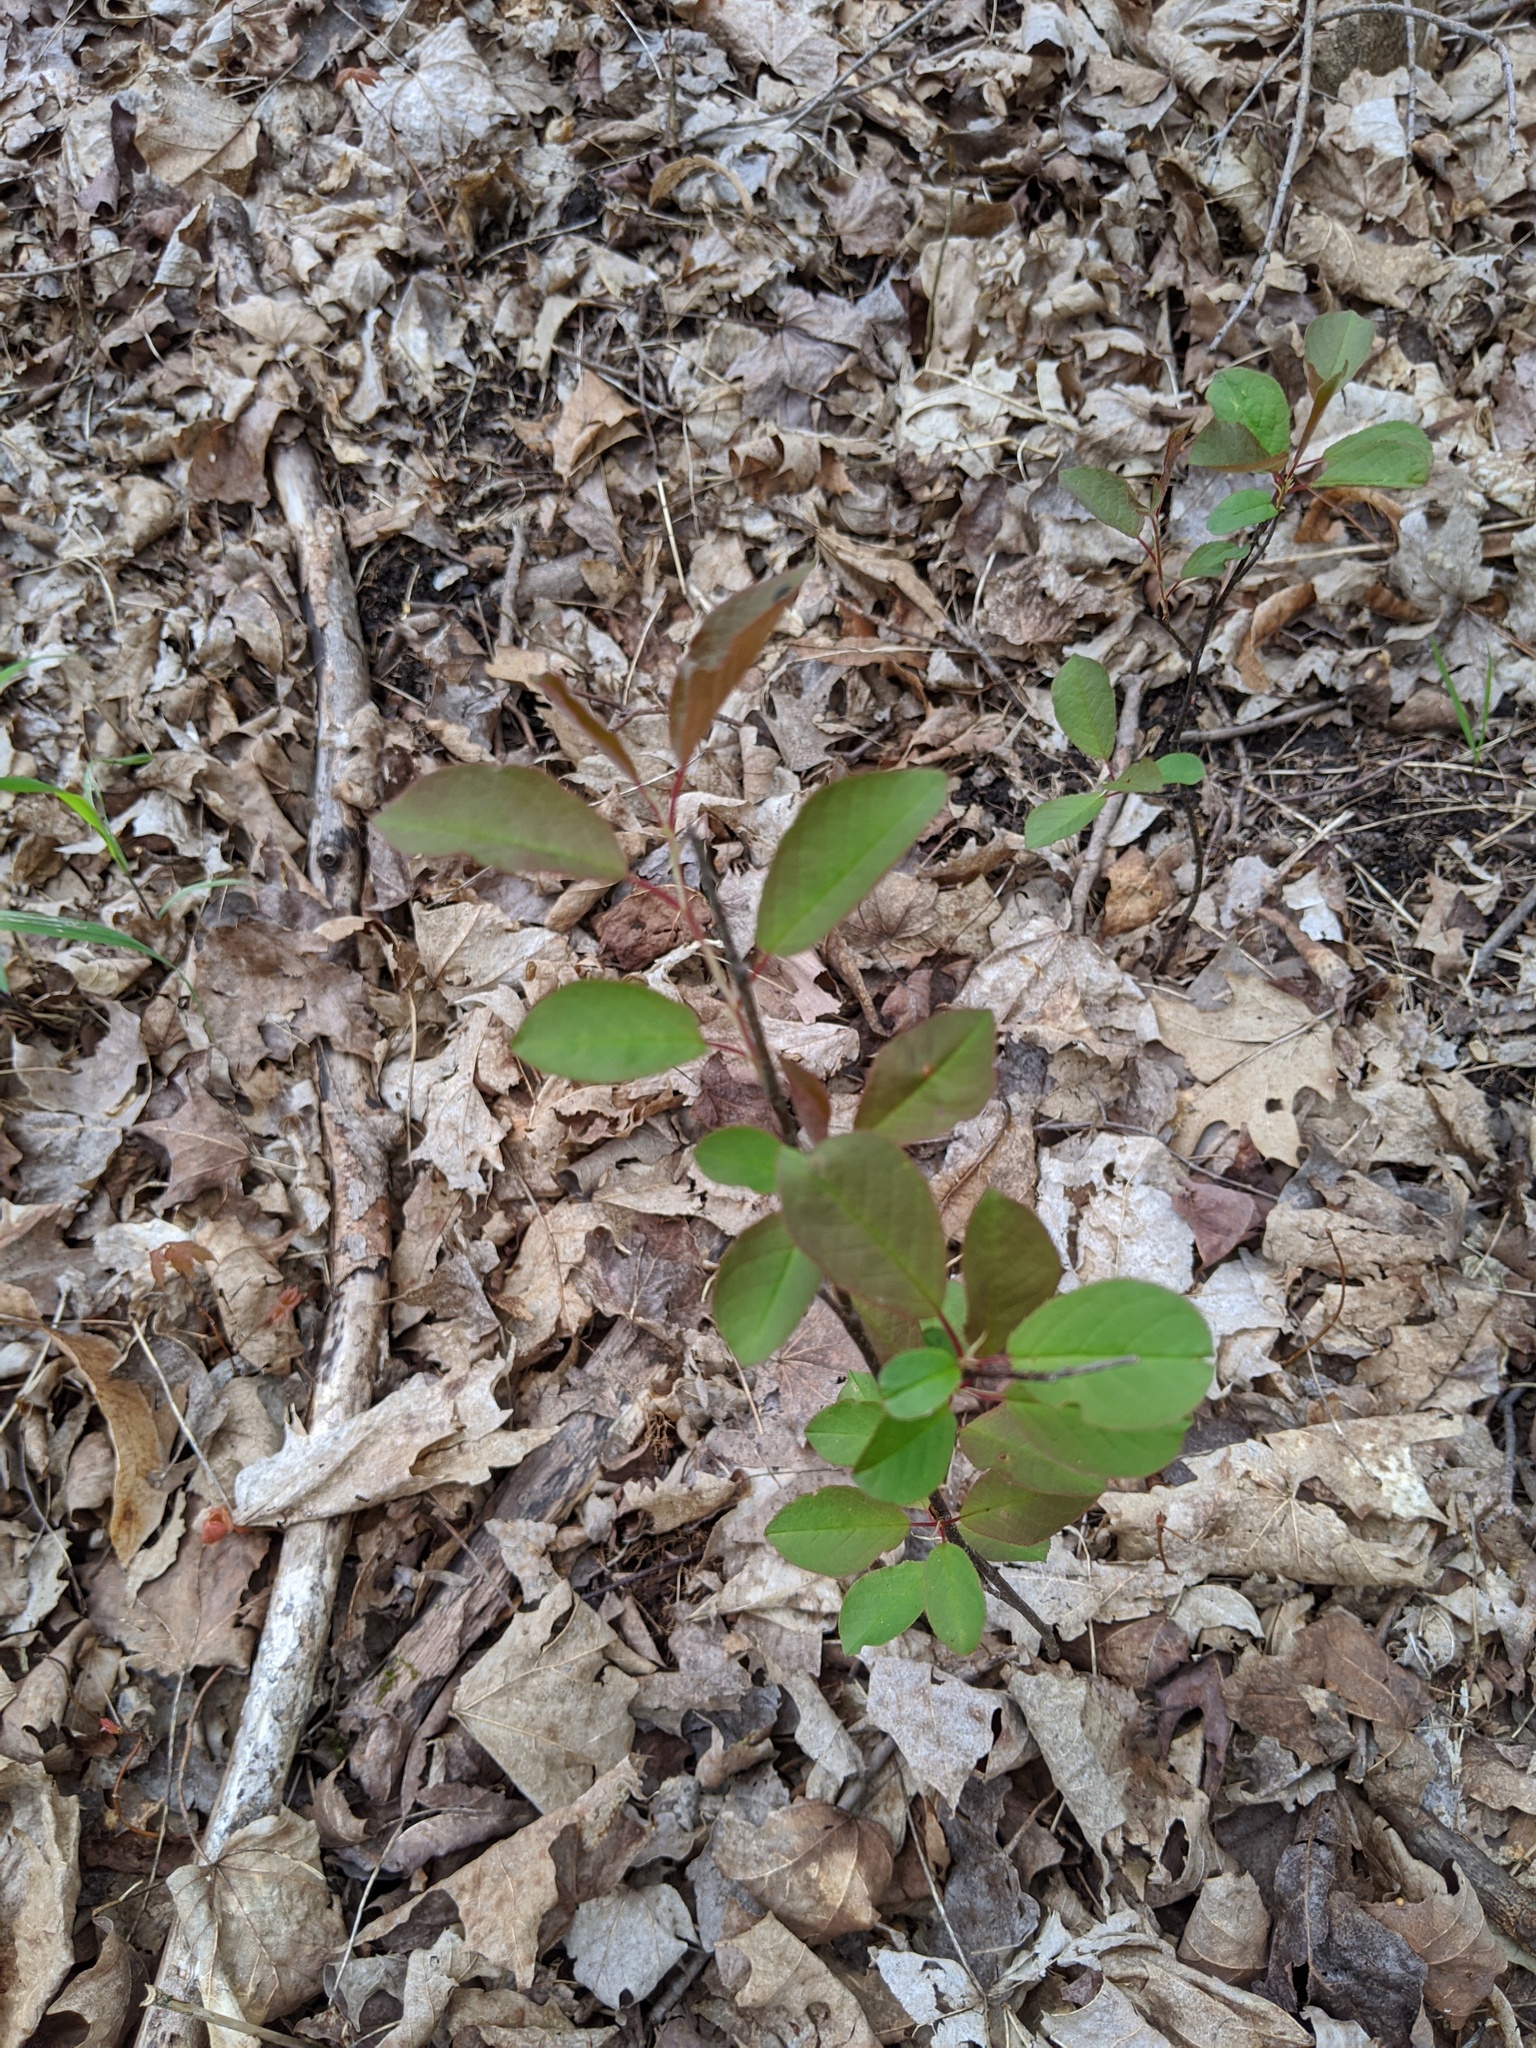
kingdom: Plantae
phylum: Tracheophyta
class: Polypodiopsida
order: Polypodiales
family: Pteridaceae
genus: Adiantum
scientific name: Adiantum pedatum
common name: Five-finger fern
